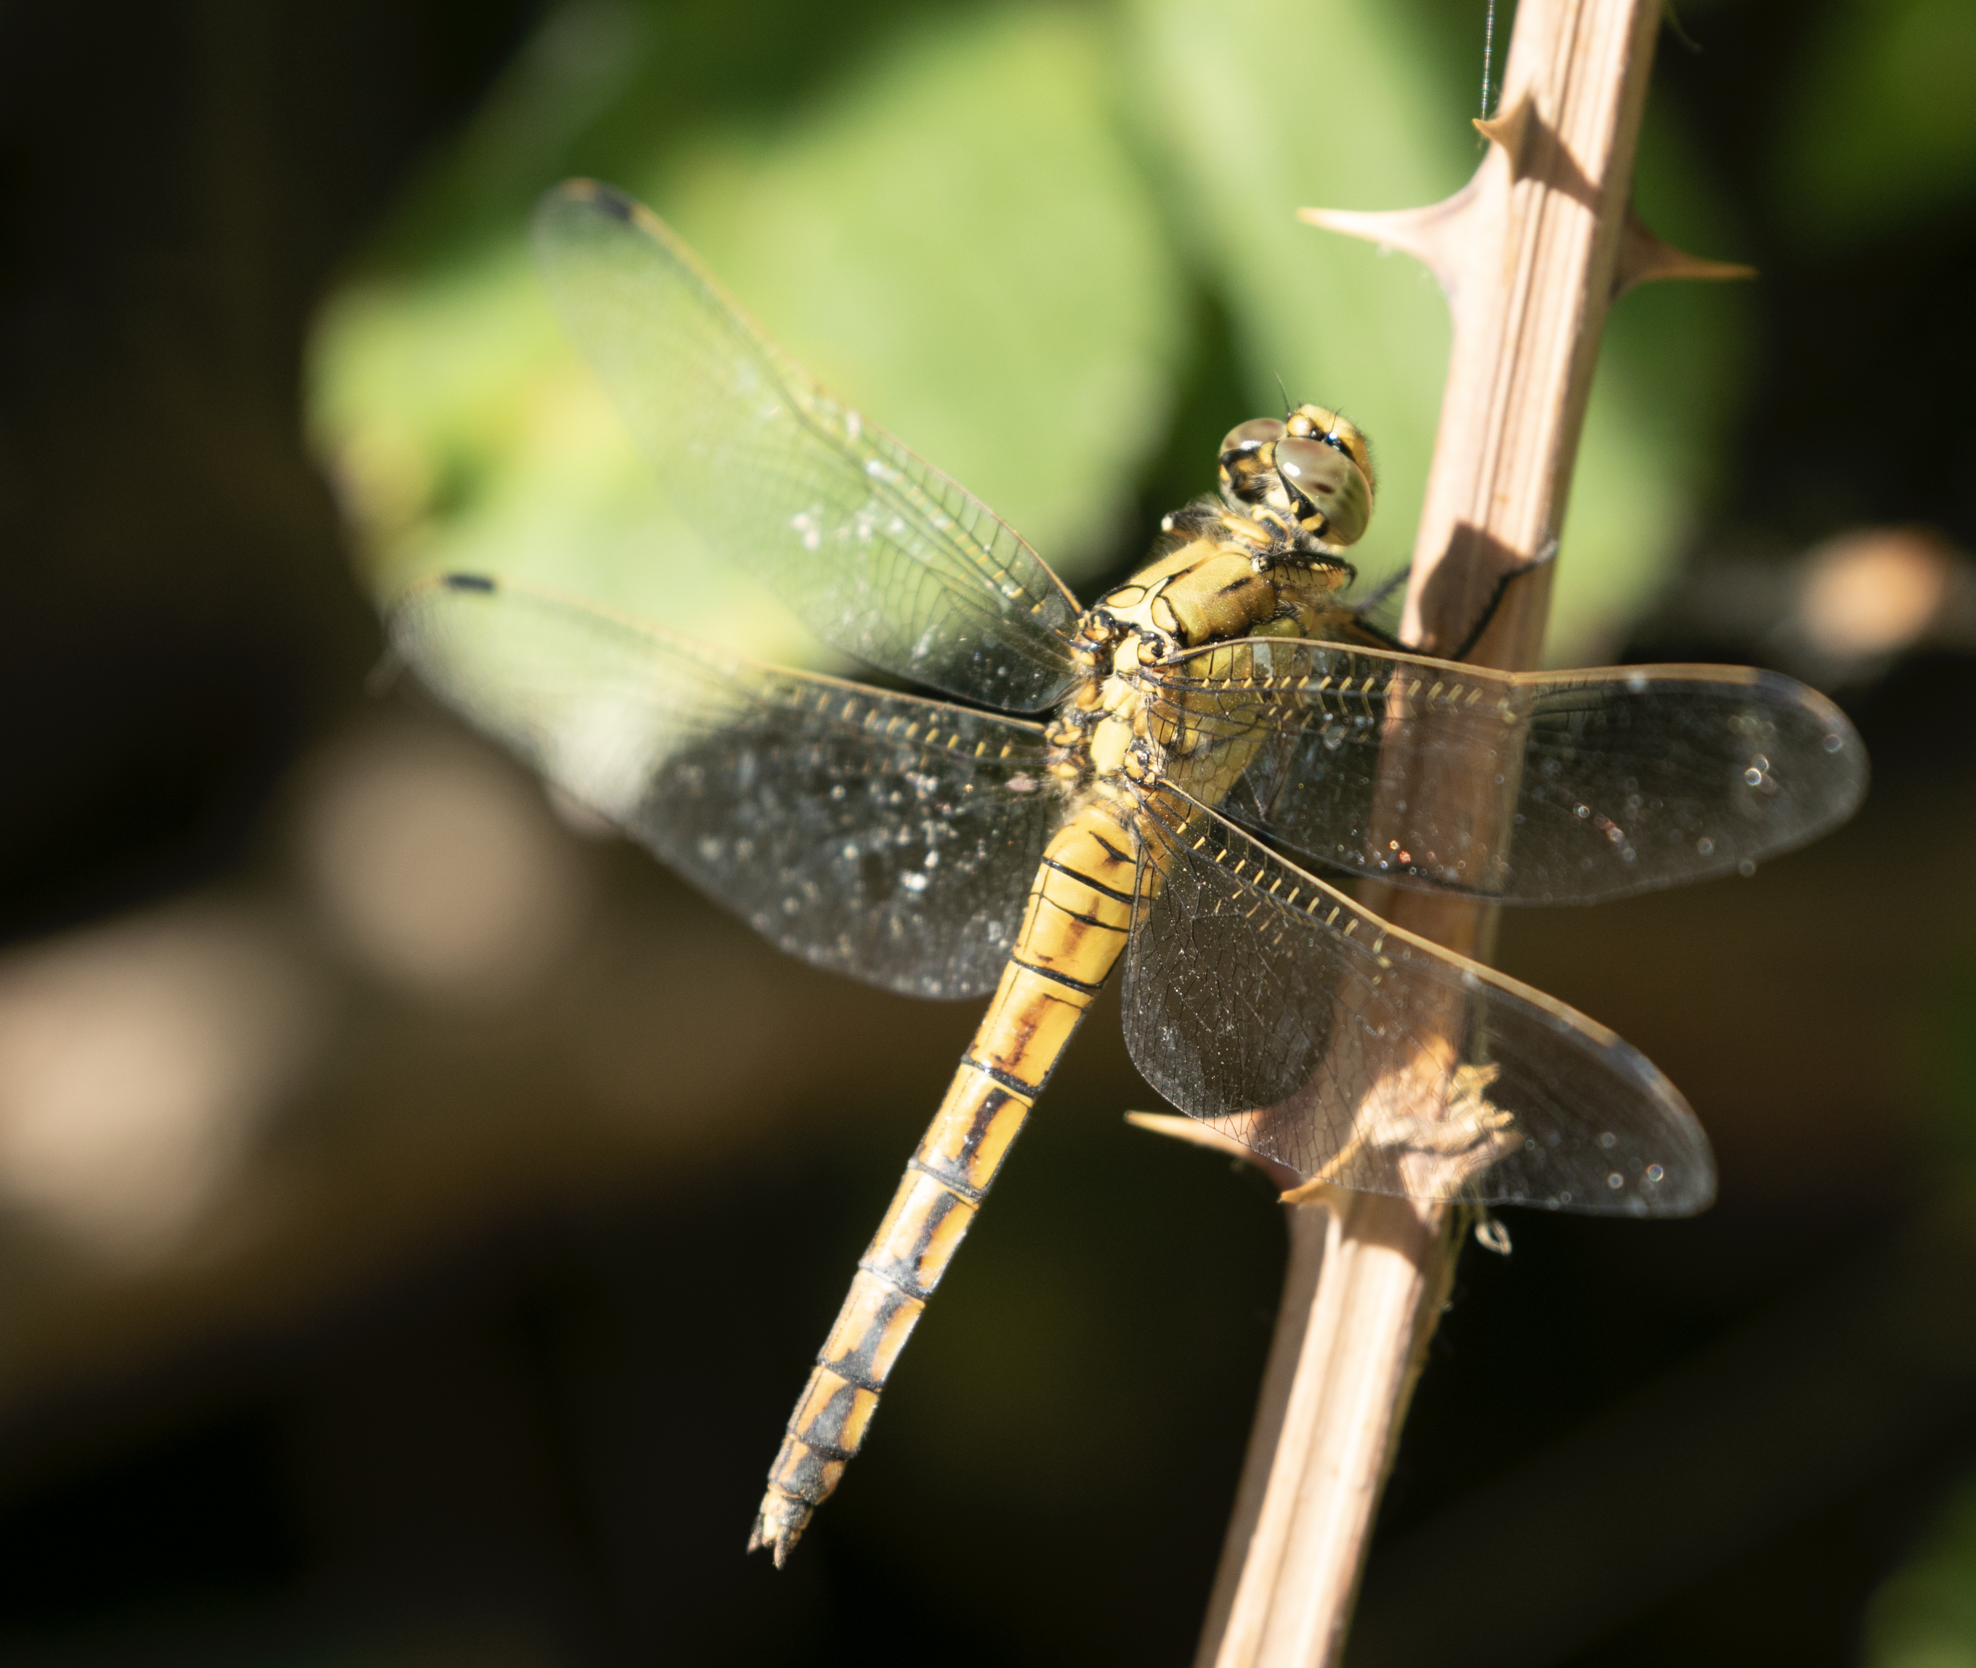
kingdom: Animalia
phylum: Arthropoda
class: Insecta
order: Odonata
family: Libellulidae
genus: Orthetrum
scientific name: Orthetrum cancellatum
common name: Black-tailed skimmer
